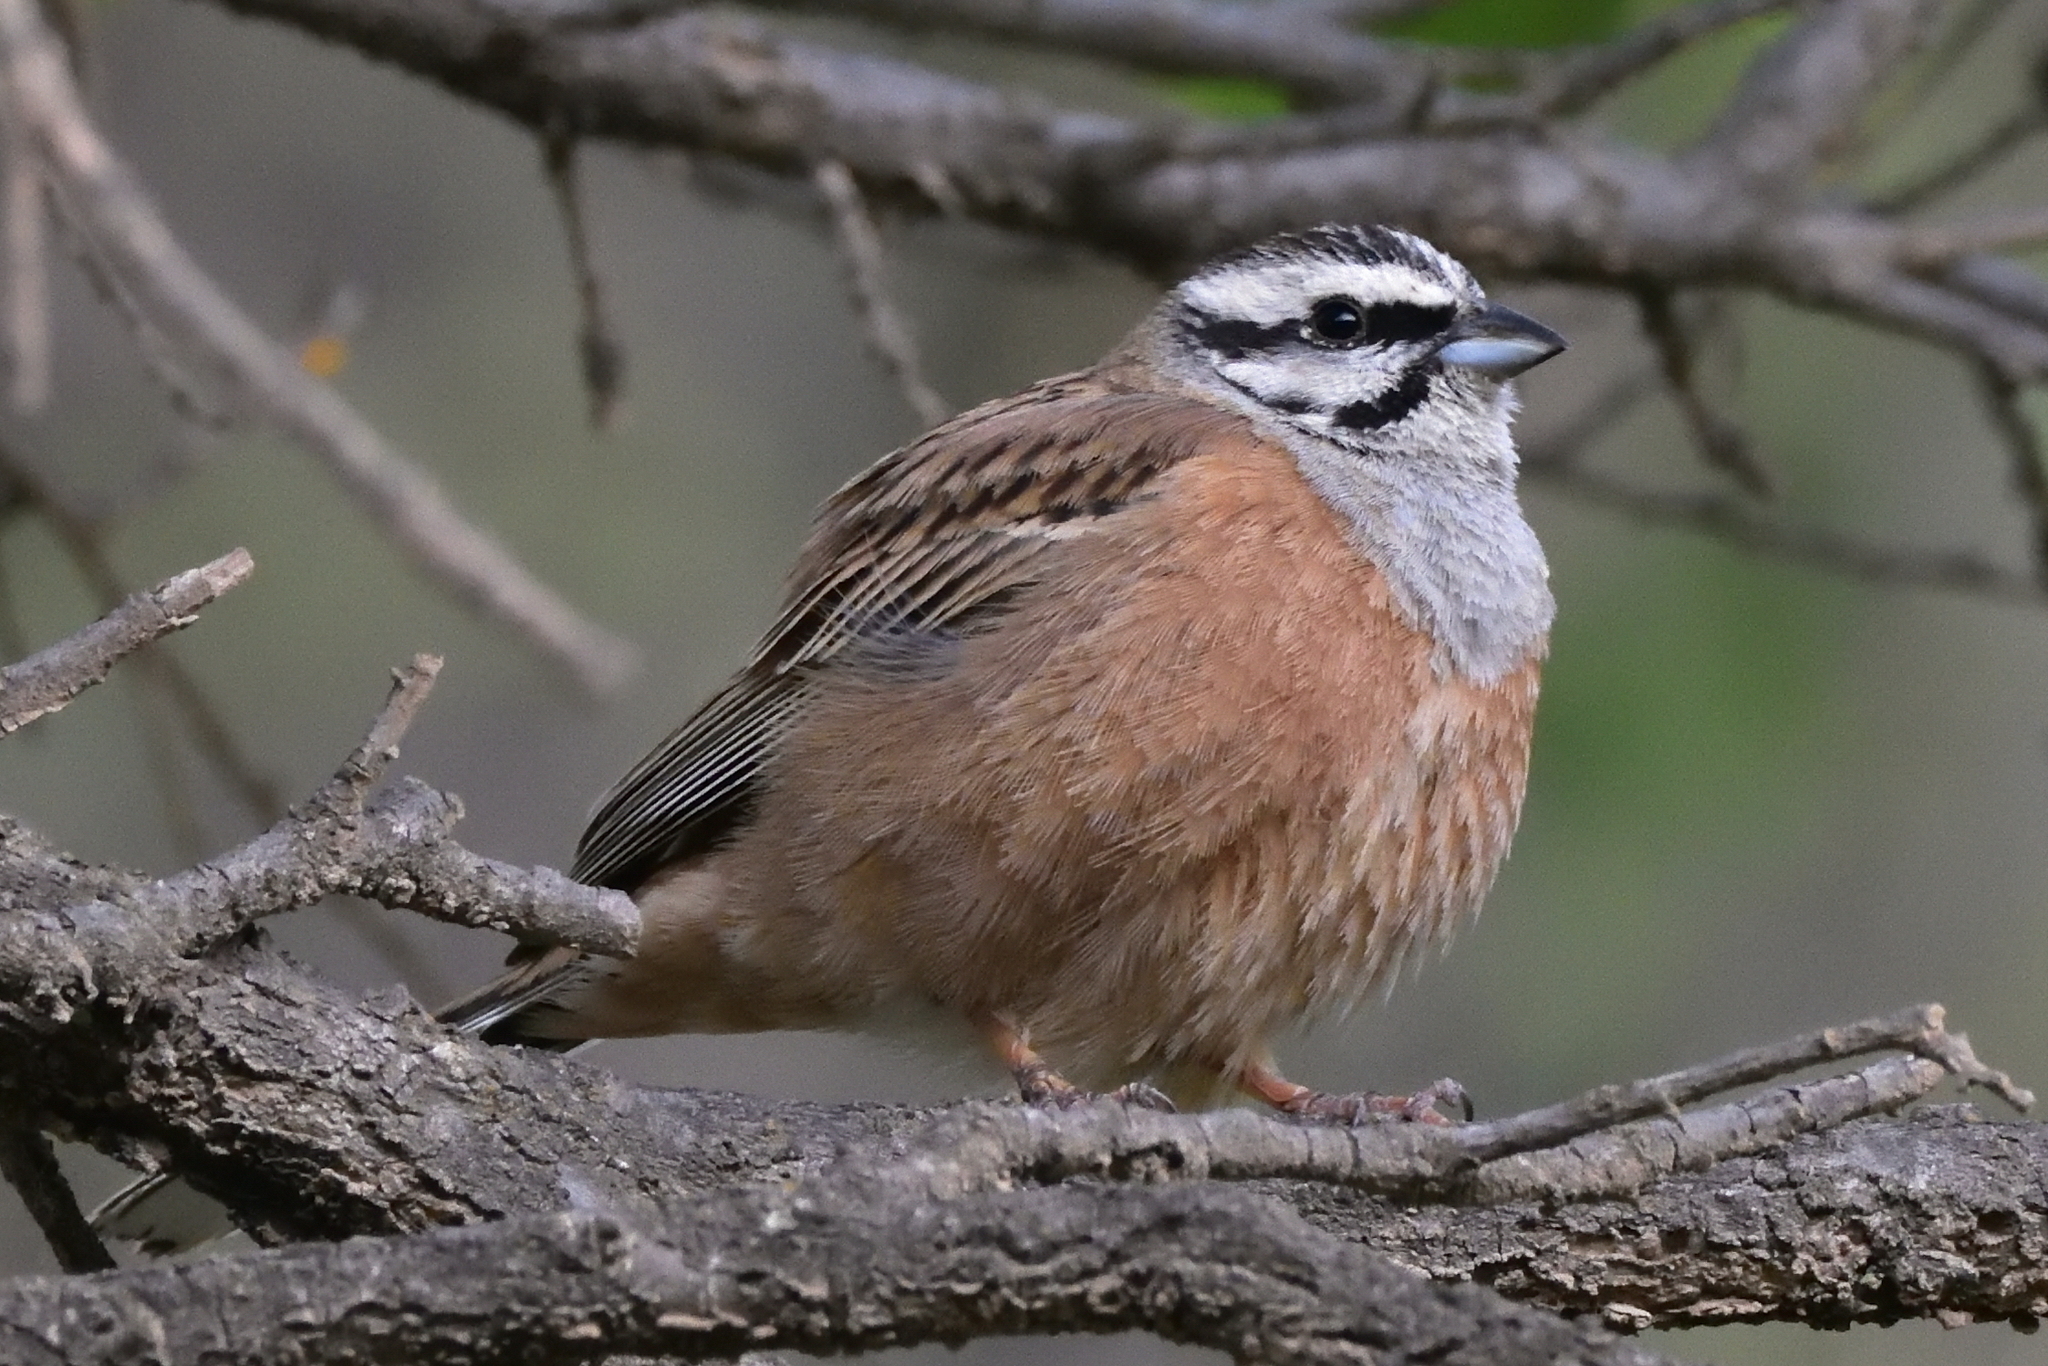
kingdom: Animalia
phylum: Chordata
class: Aves
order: Passeriformes
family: Emberizidae
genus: Emberiza
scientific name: Emberiza cia
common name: Rock bunting
